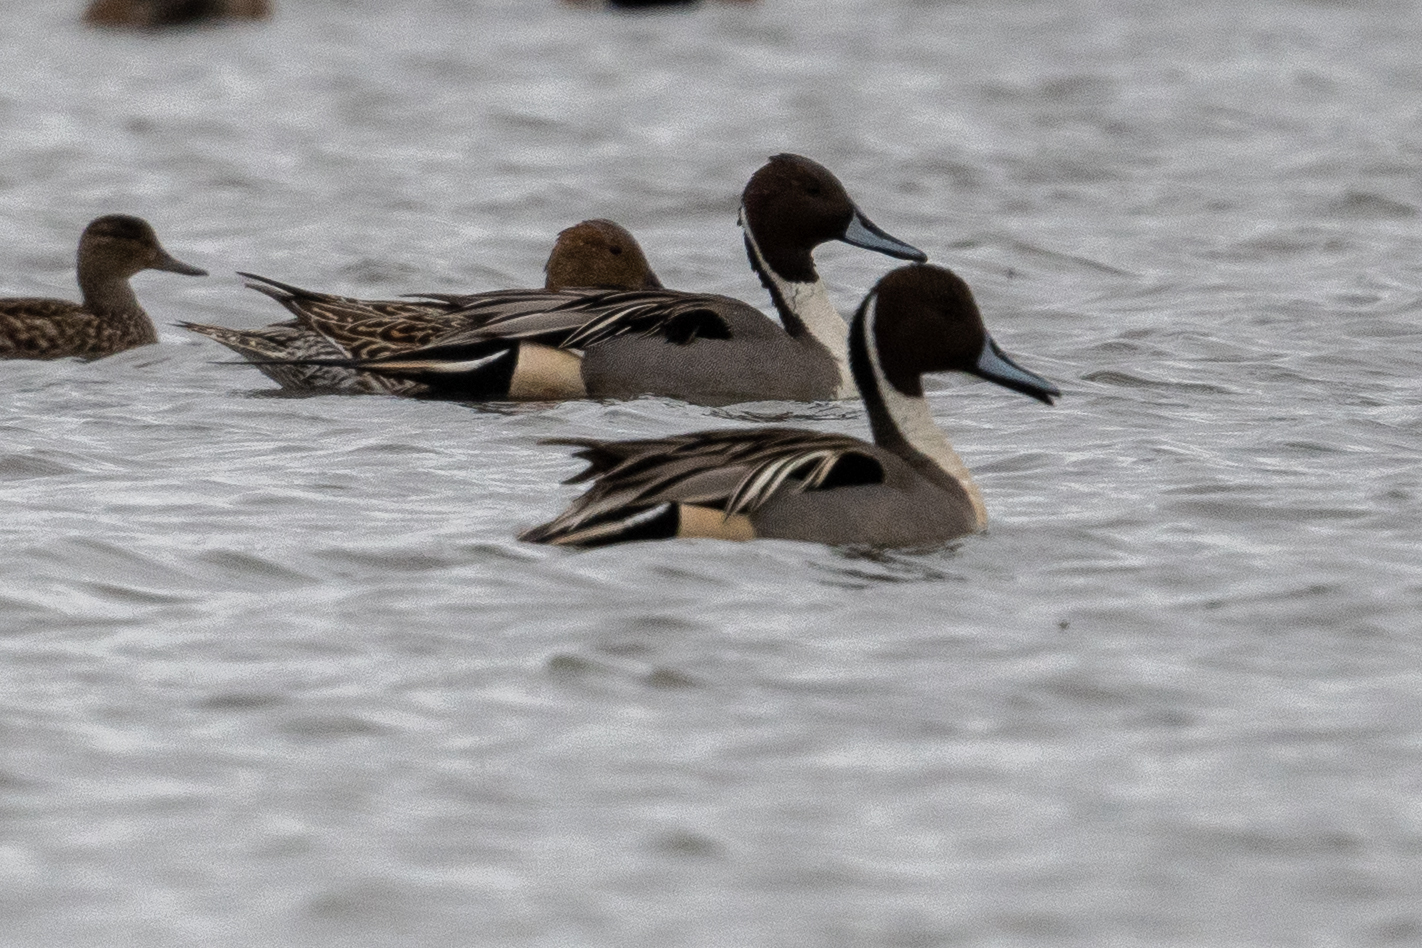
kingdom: Animalia
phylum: Chordata
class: Aves
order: Anseriformes
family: Anatidae
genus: Anas
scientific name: Anas acuta
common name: Northern pintail
